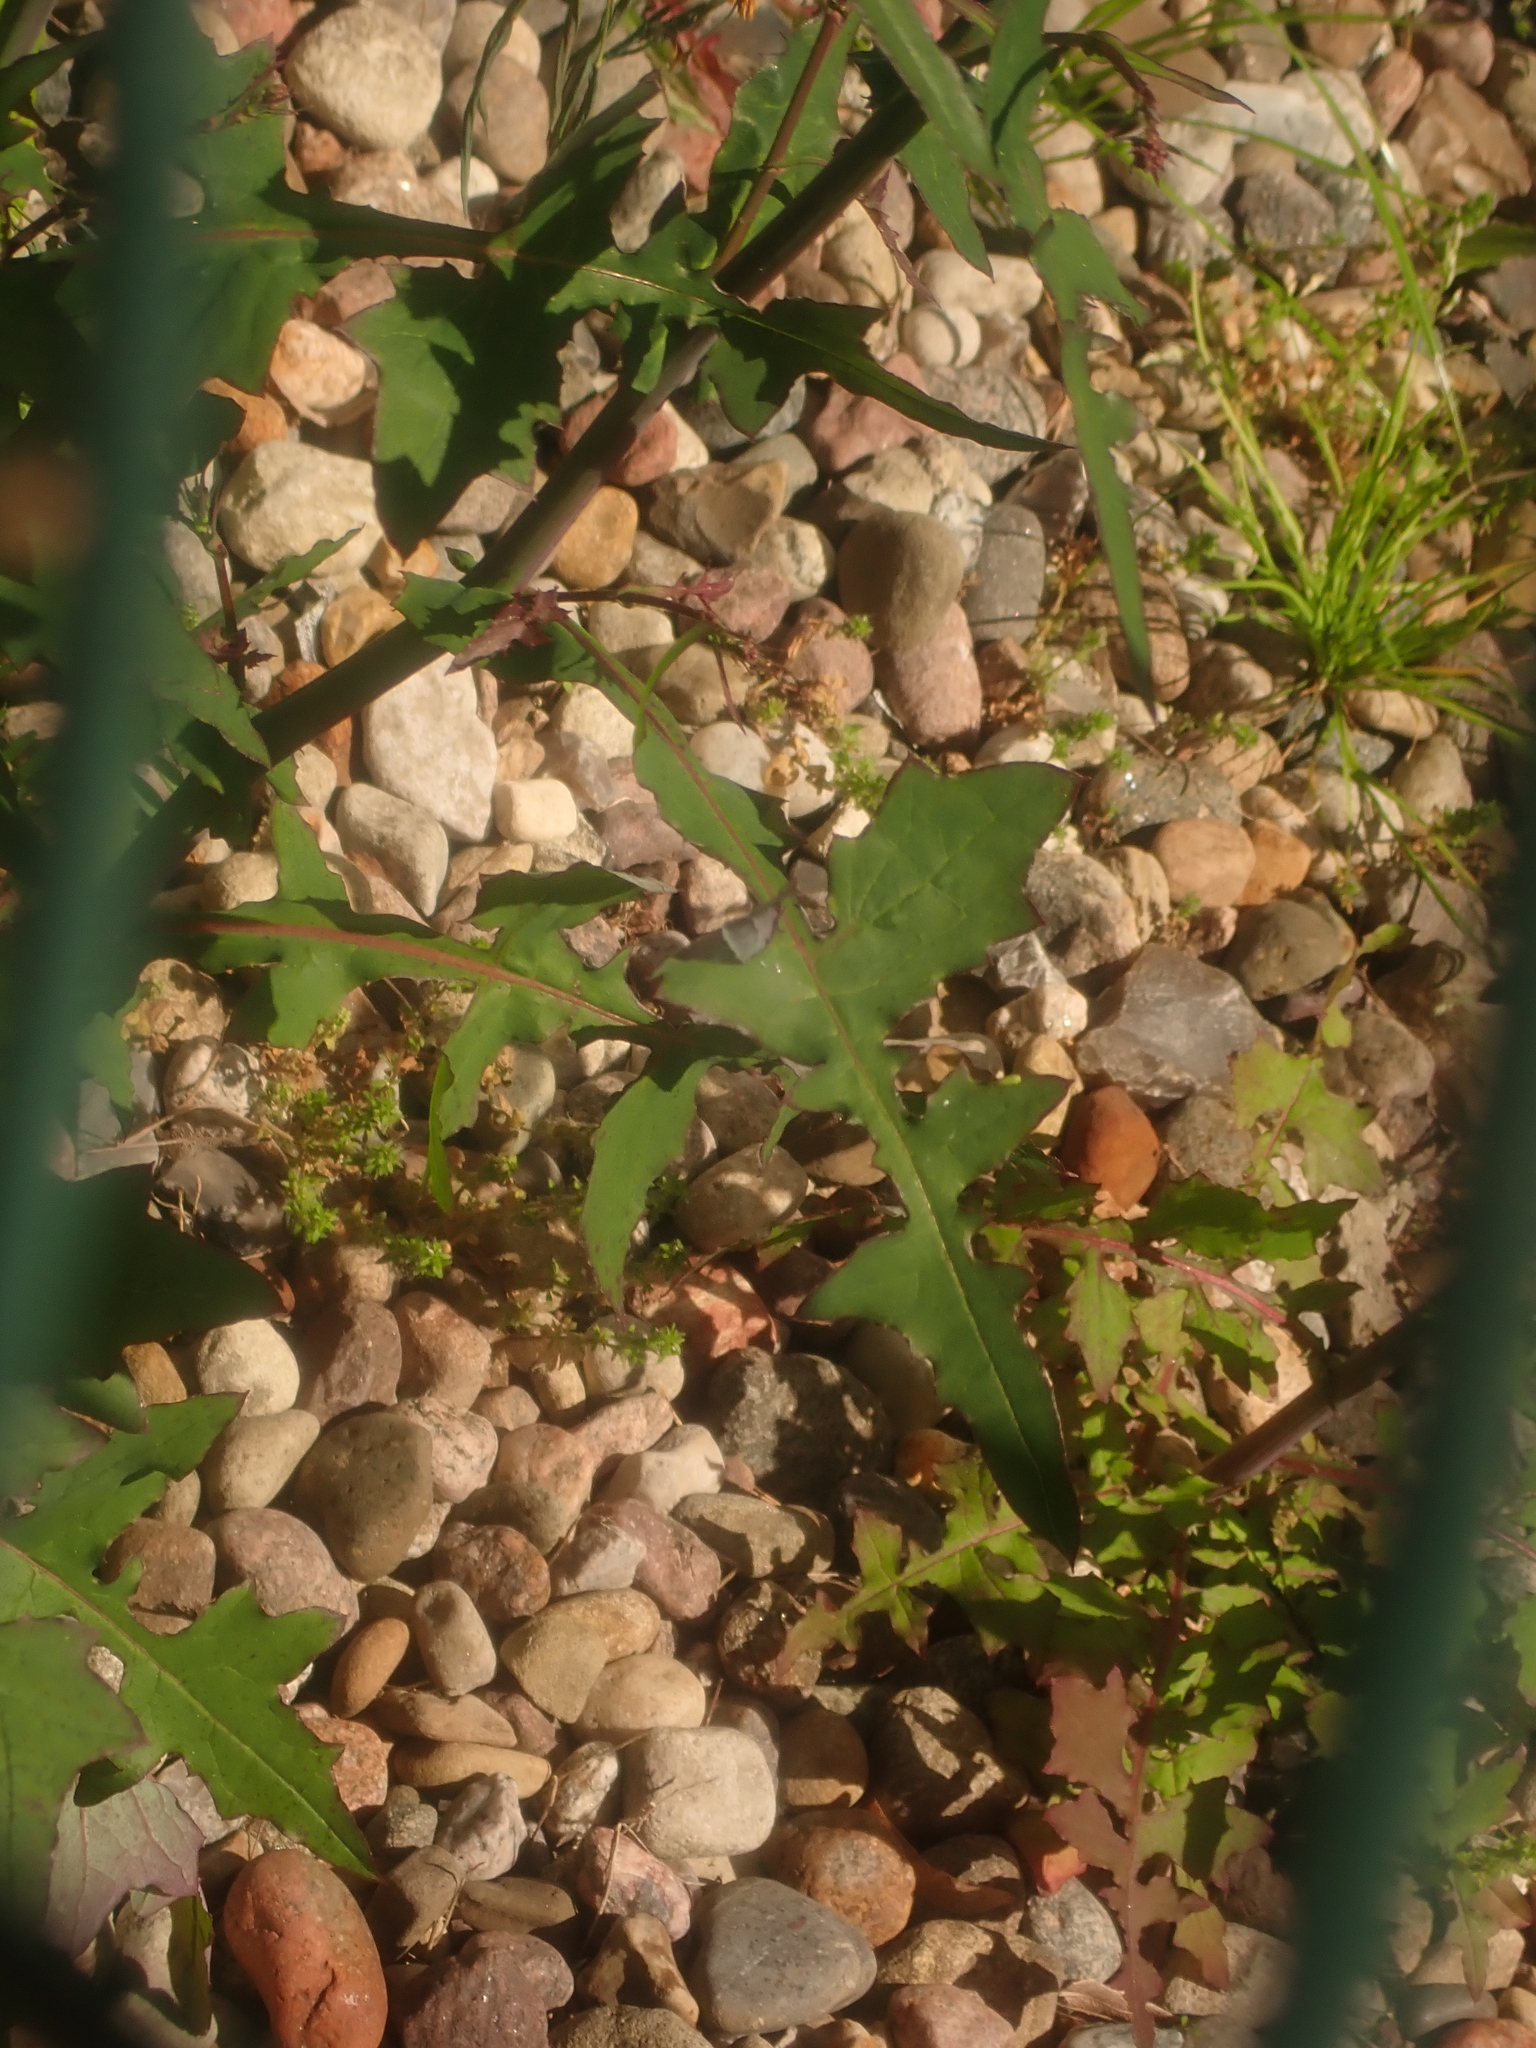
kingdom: Plantae
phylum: Tracheophyta
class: Magnoliopsida
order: Asterales
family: Asteraceae
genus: Sonchus
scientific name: Sonchus oleraceus
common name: Common sowthistle
